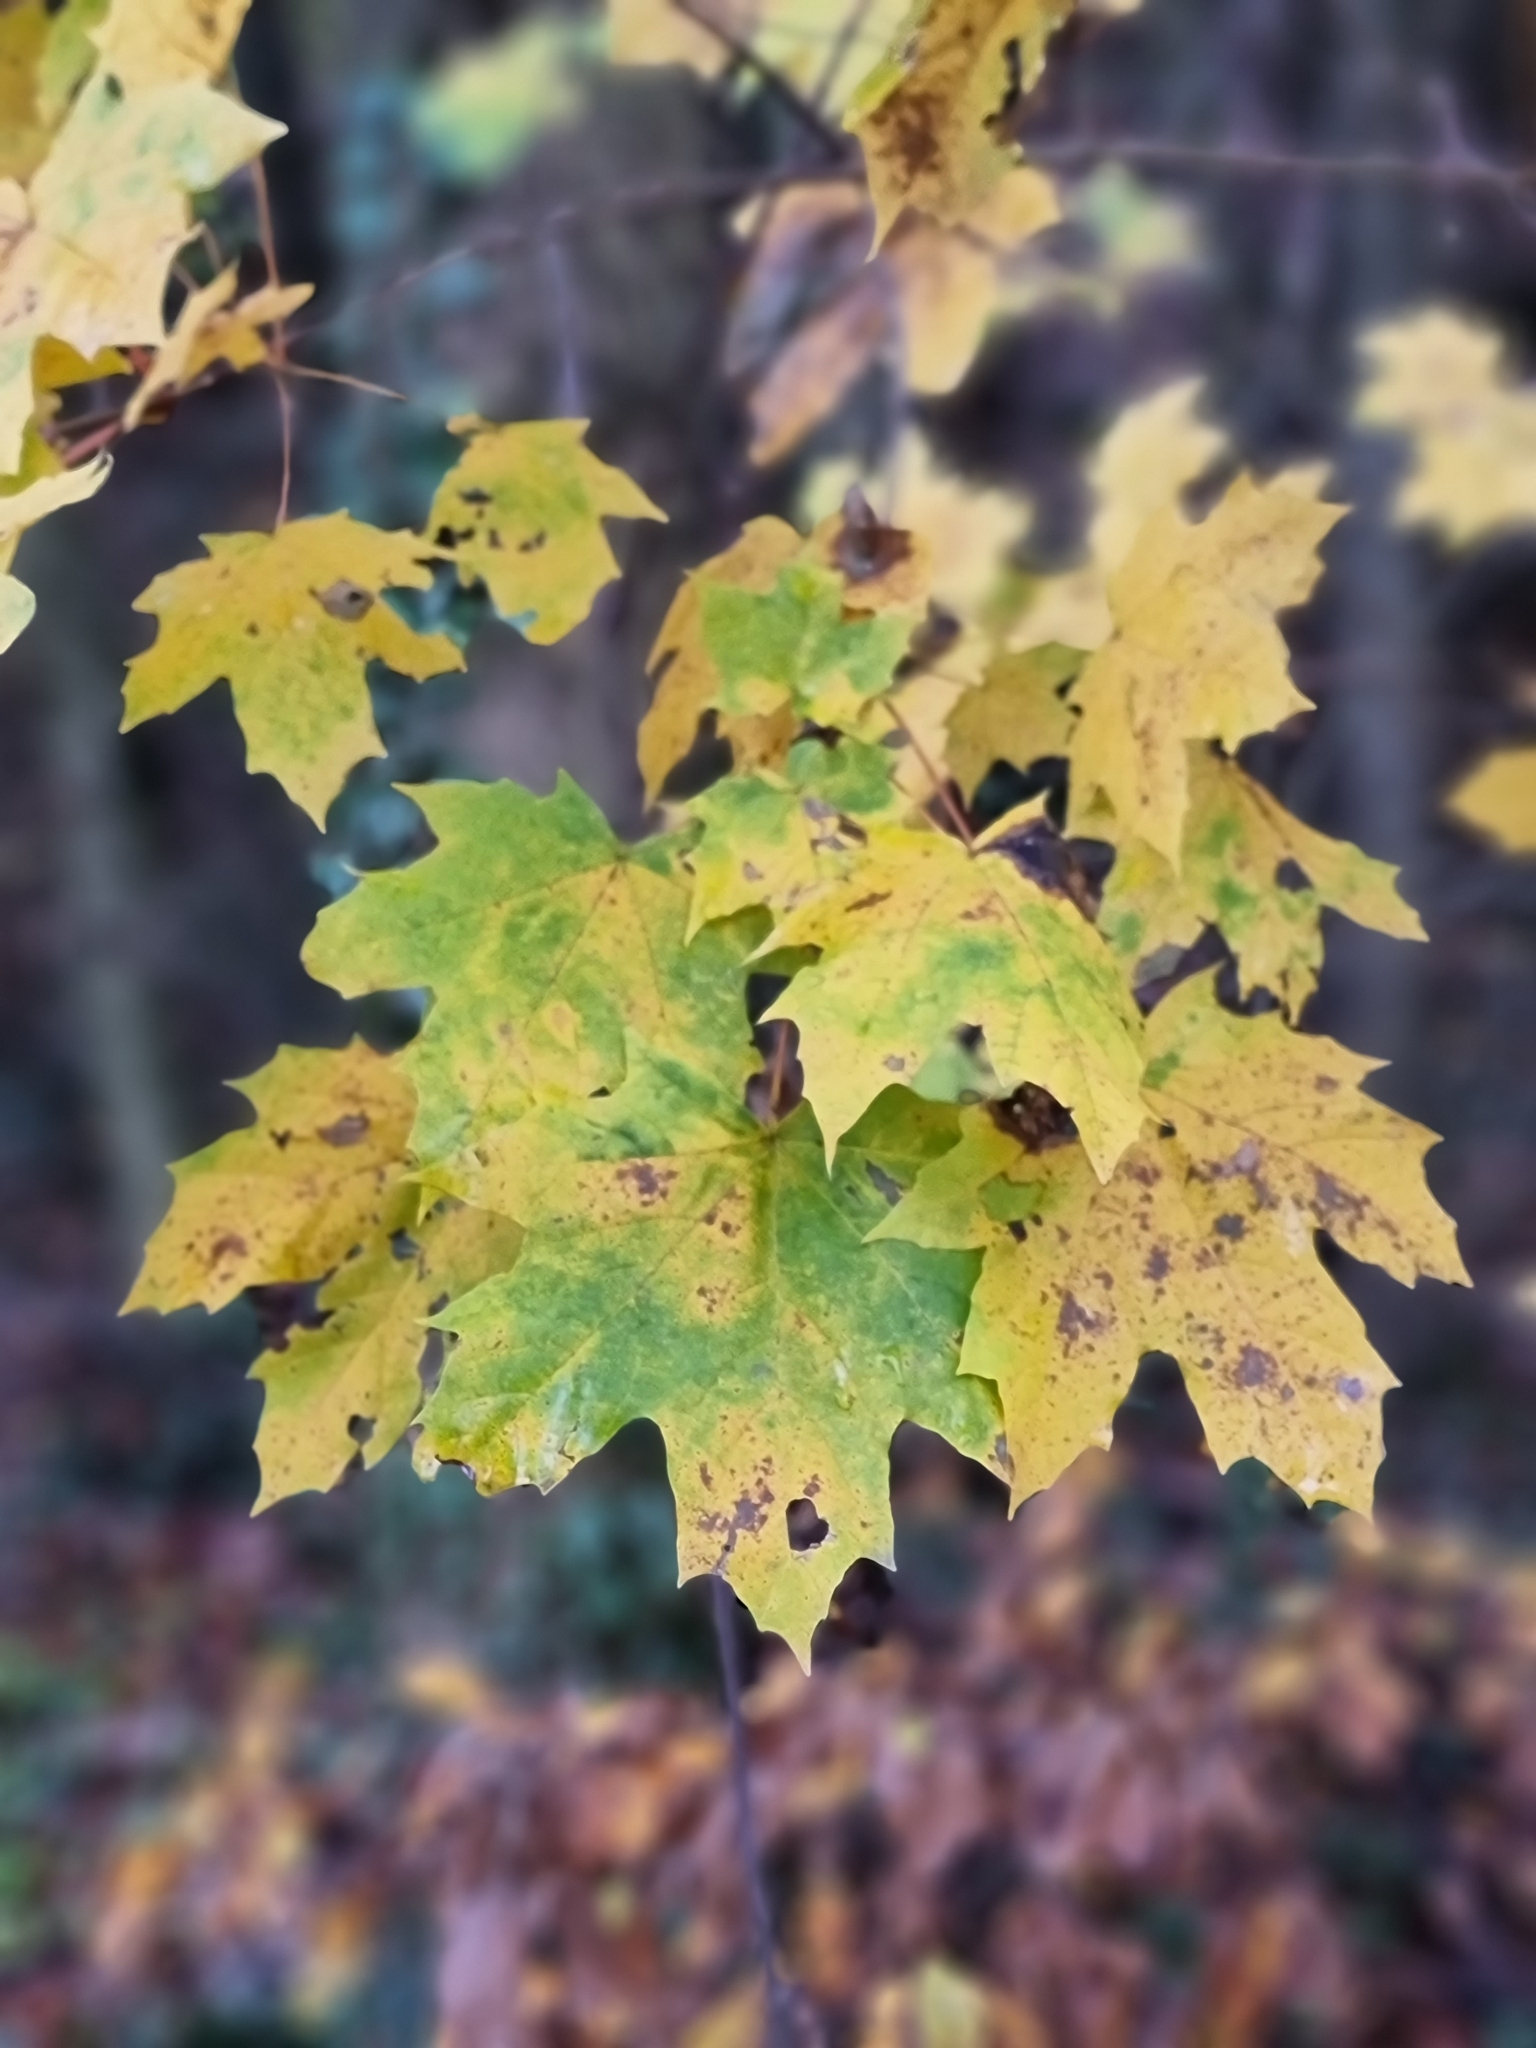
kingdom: Plantae
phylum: Tracheophyta
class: Magnoliopsida
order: Sapindales
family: Sapindaceae
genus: Acer
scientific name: Acer platanoides
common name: Norway maple
